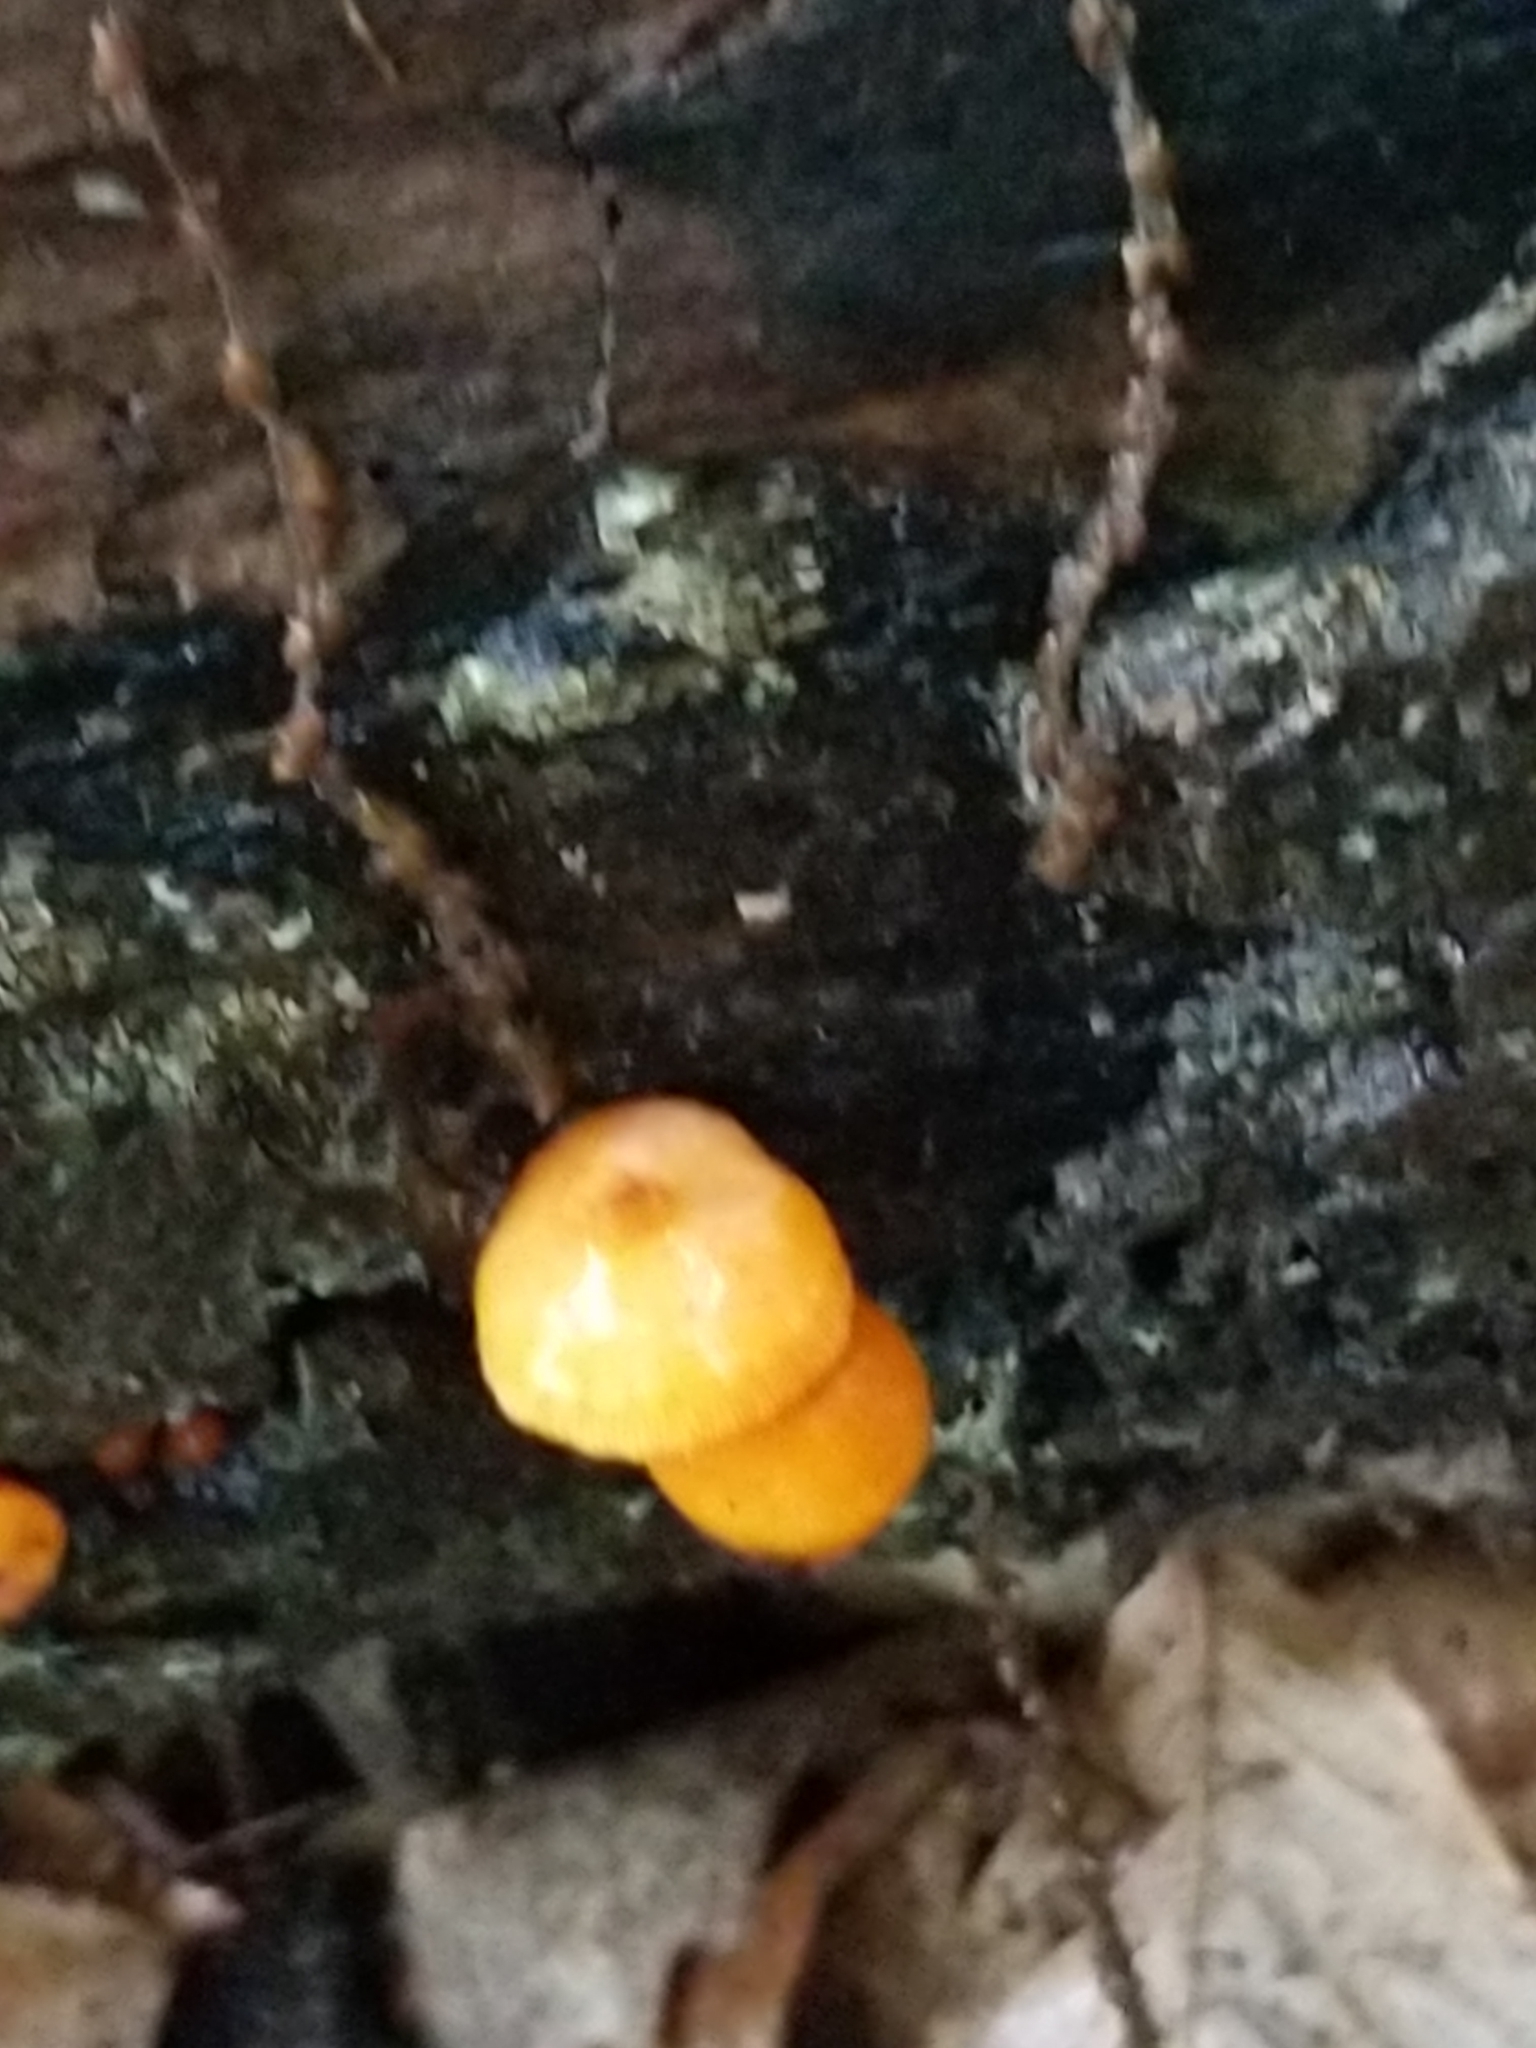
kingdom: Fungi
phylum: Basidiomycota
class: Agaricomycetes
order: Agaricales
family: Mycenaceae
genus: Mycena
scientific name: Mycena leaiana
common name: Orange mycena
